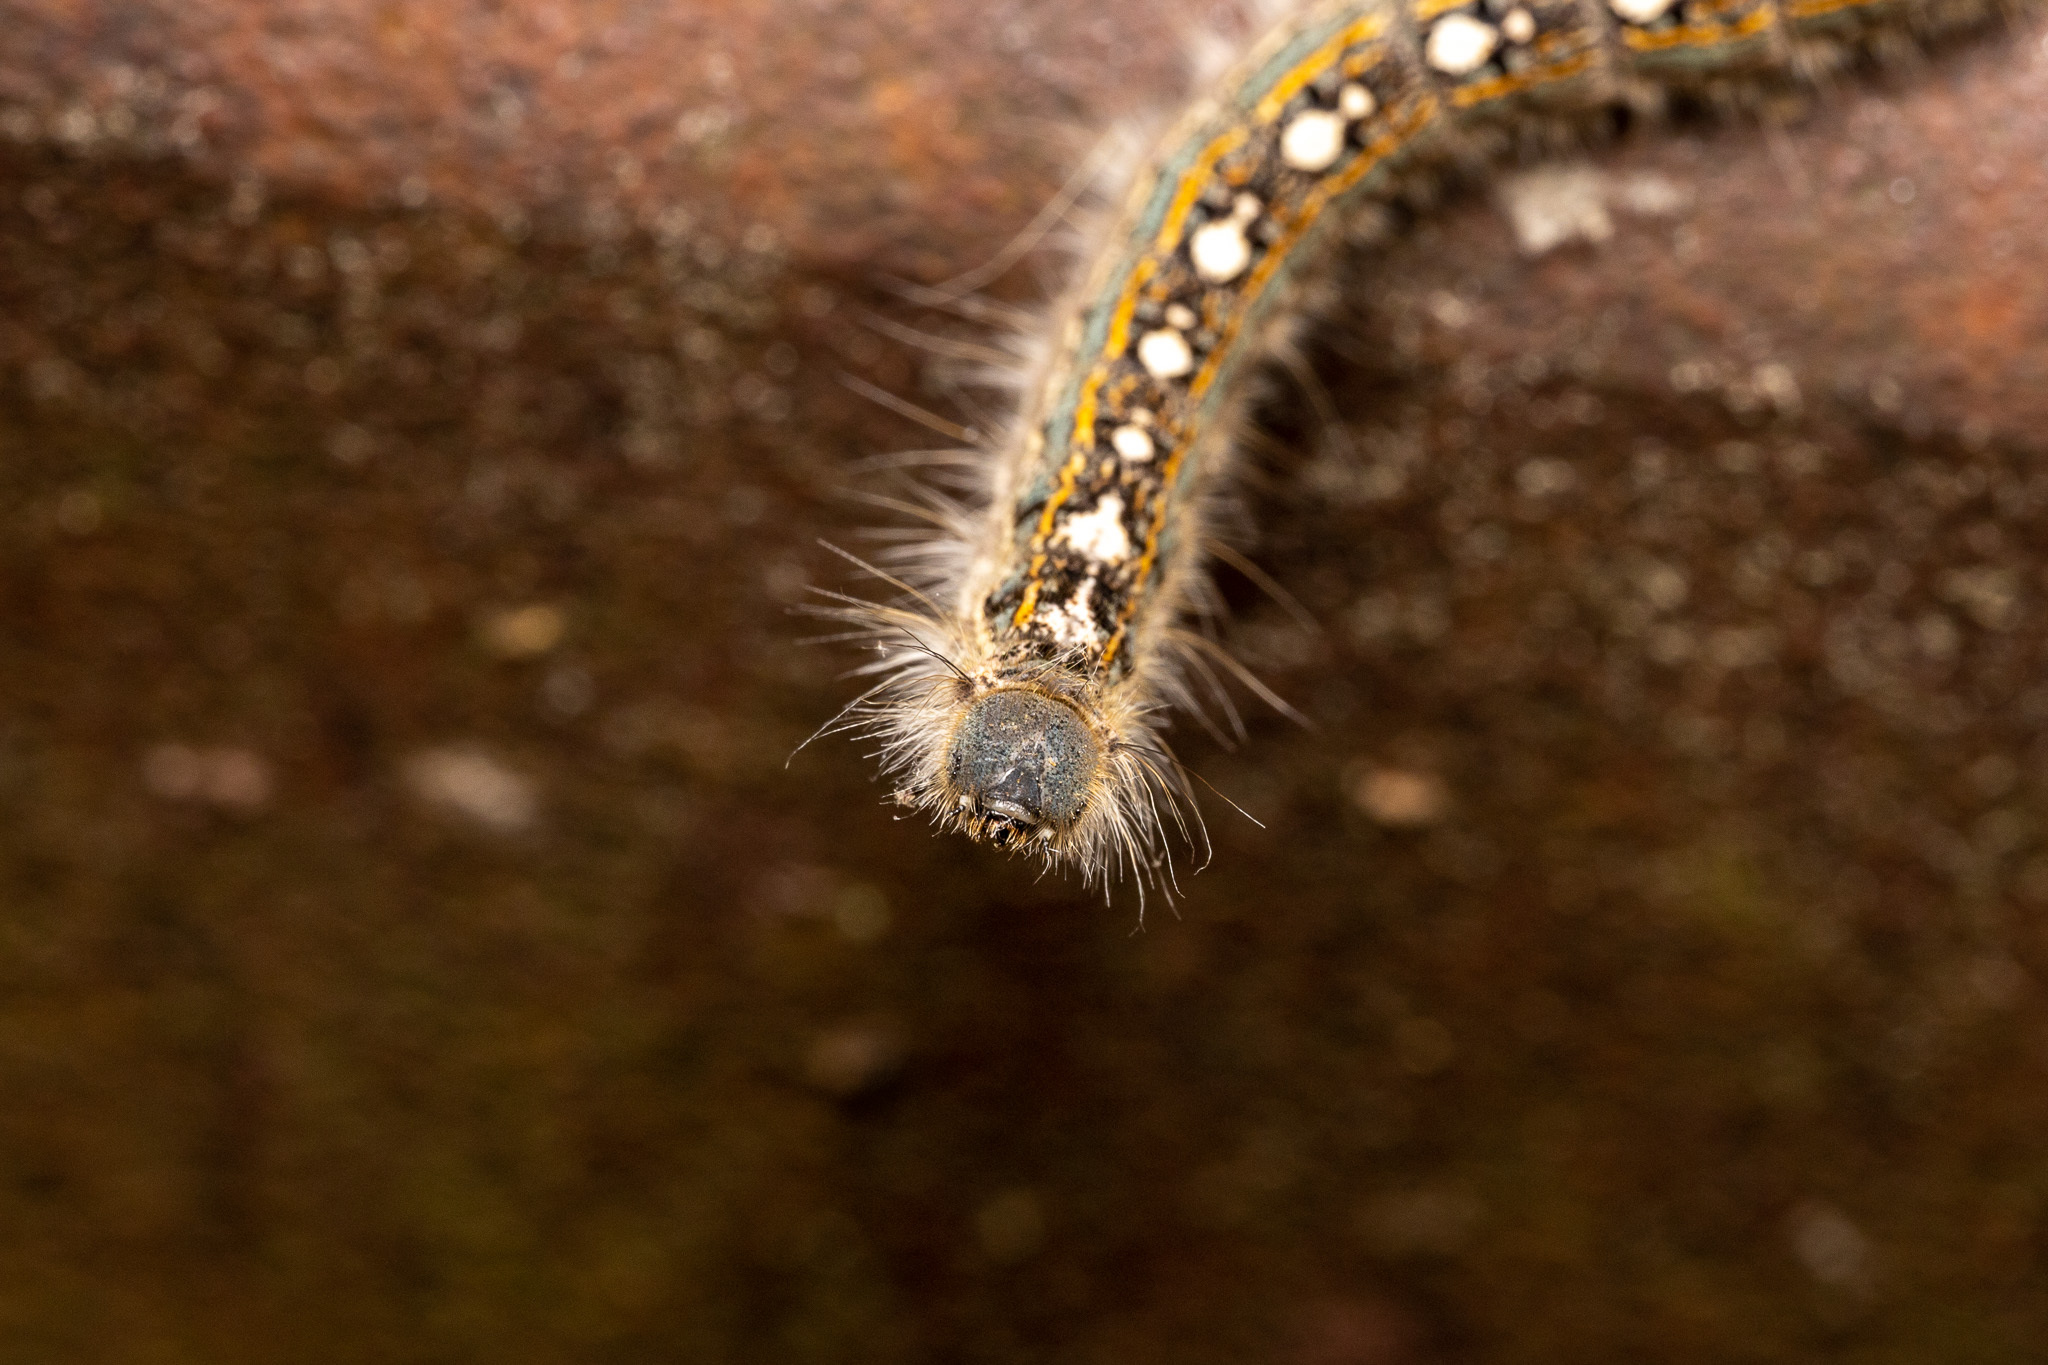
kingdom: Animalia
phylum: Arthropoda
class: Insecta
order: Lepidoptera
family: Lasiocampidae
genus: Malacosoma
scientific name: Malacosoma disstria
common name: Forest tent caterpillar
